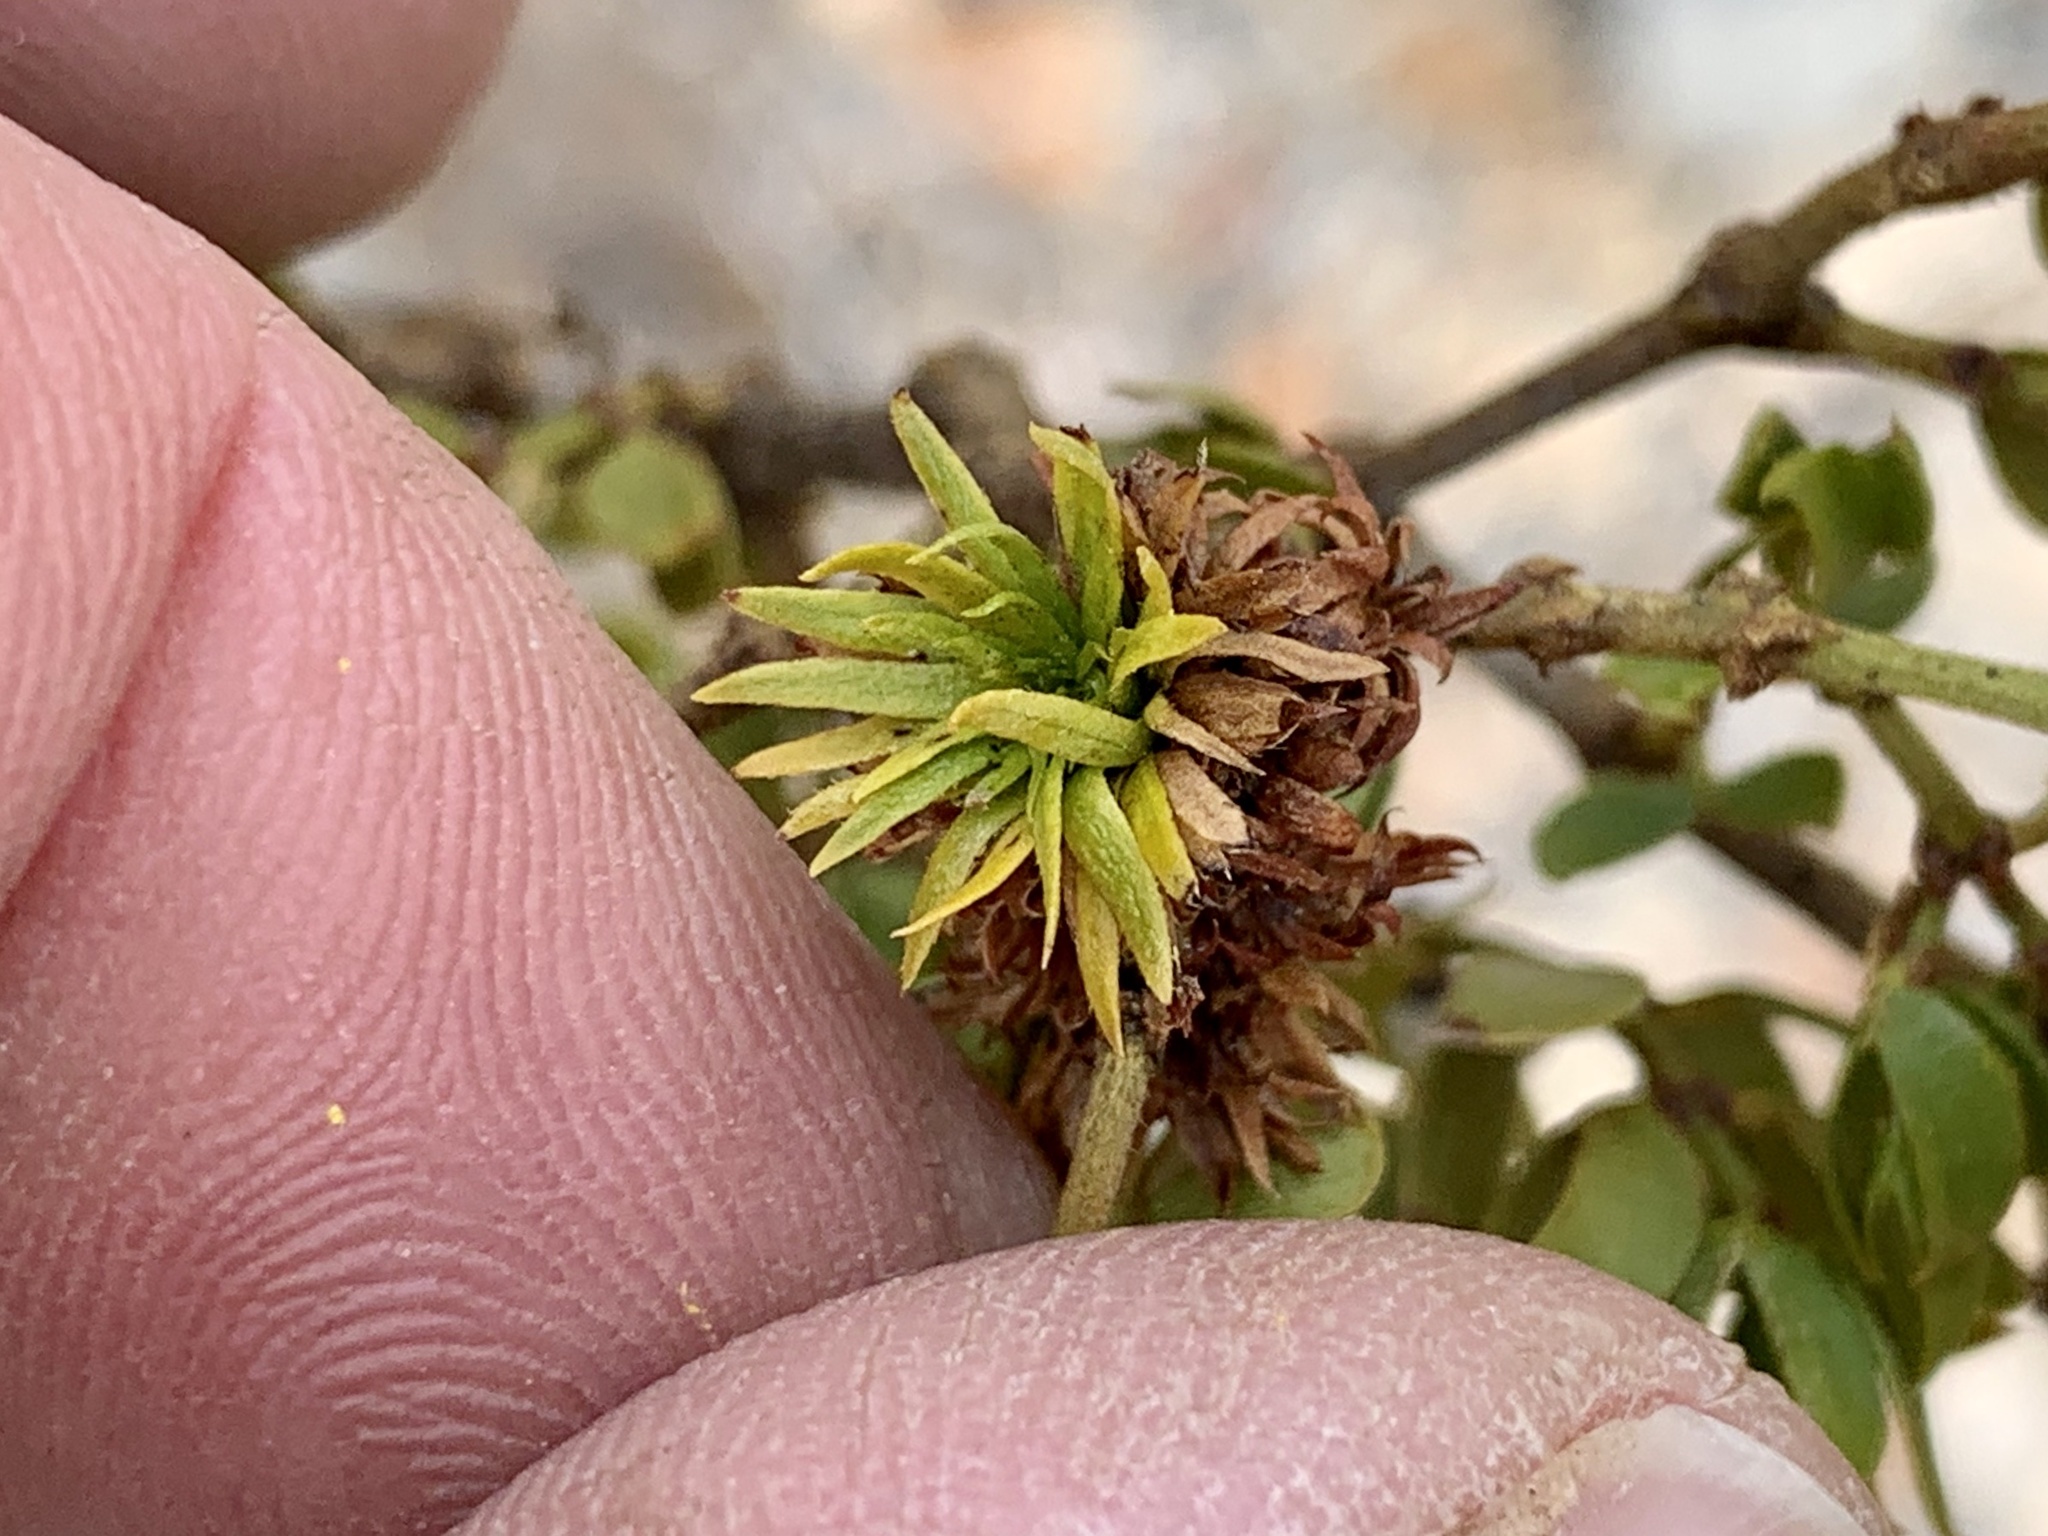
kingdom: Animalia
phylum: Arthropoda
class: Insecta
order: Diptera
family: Cecidomyiidae
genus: Asphondylia
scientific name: Asphondylia rosetta
